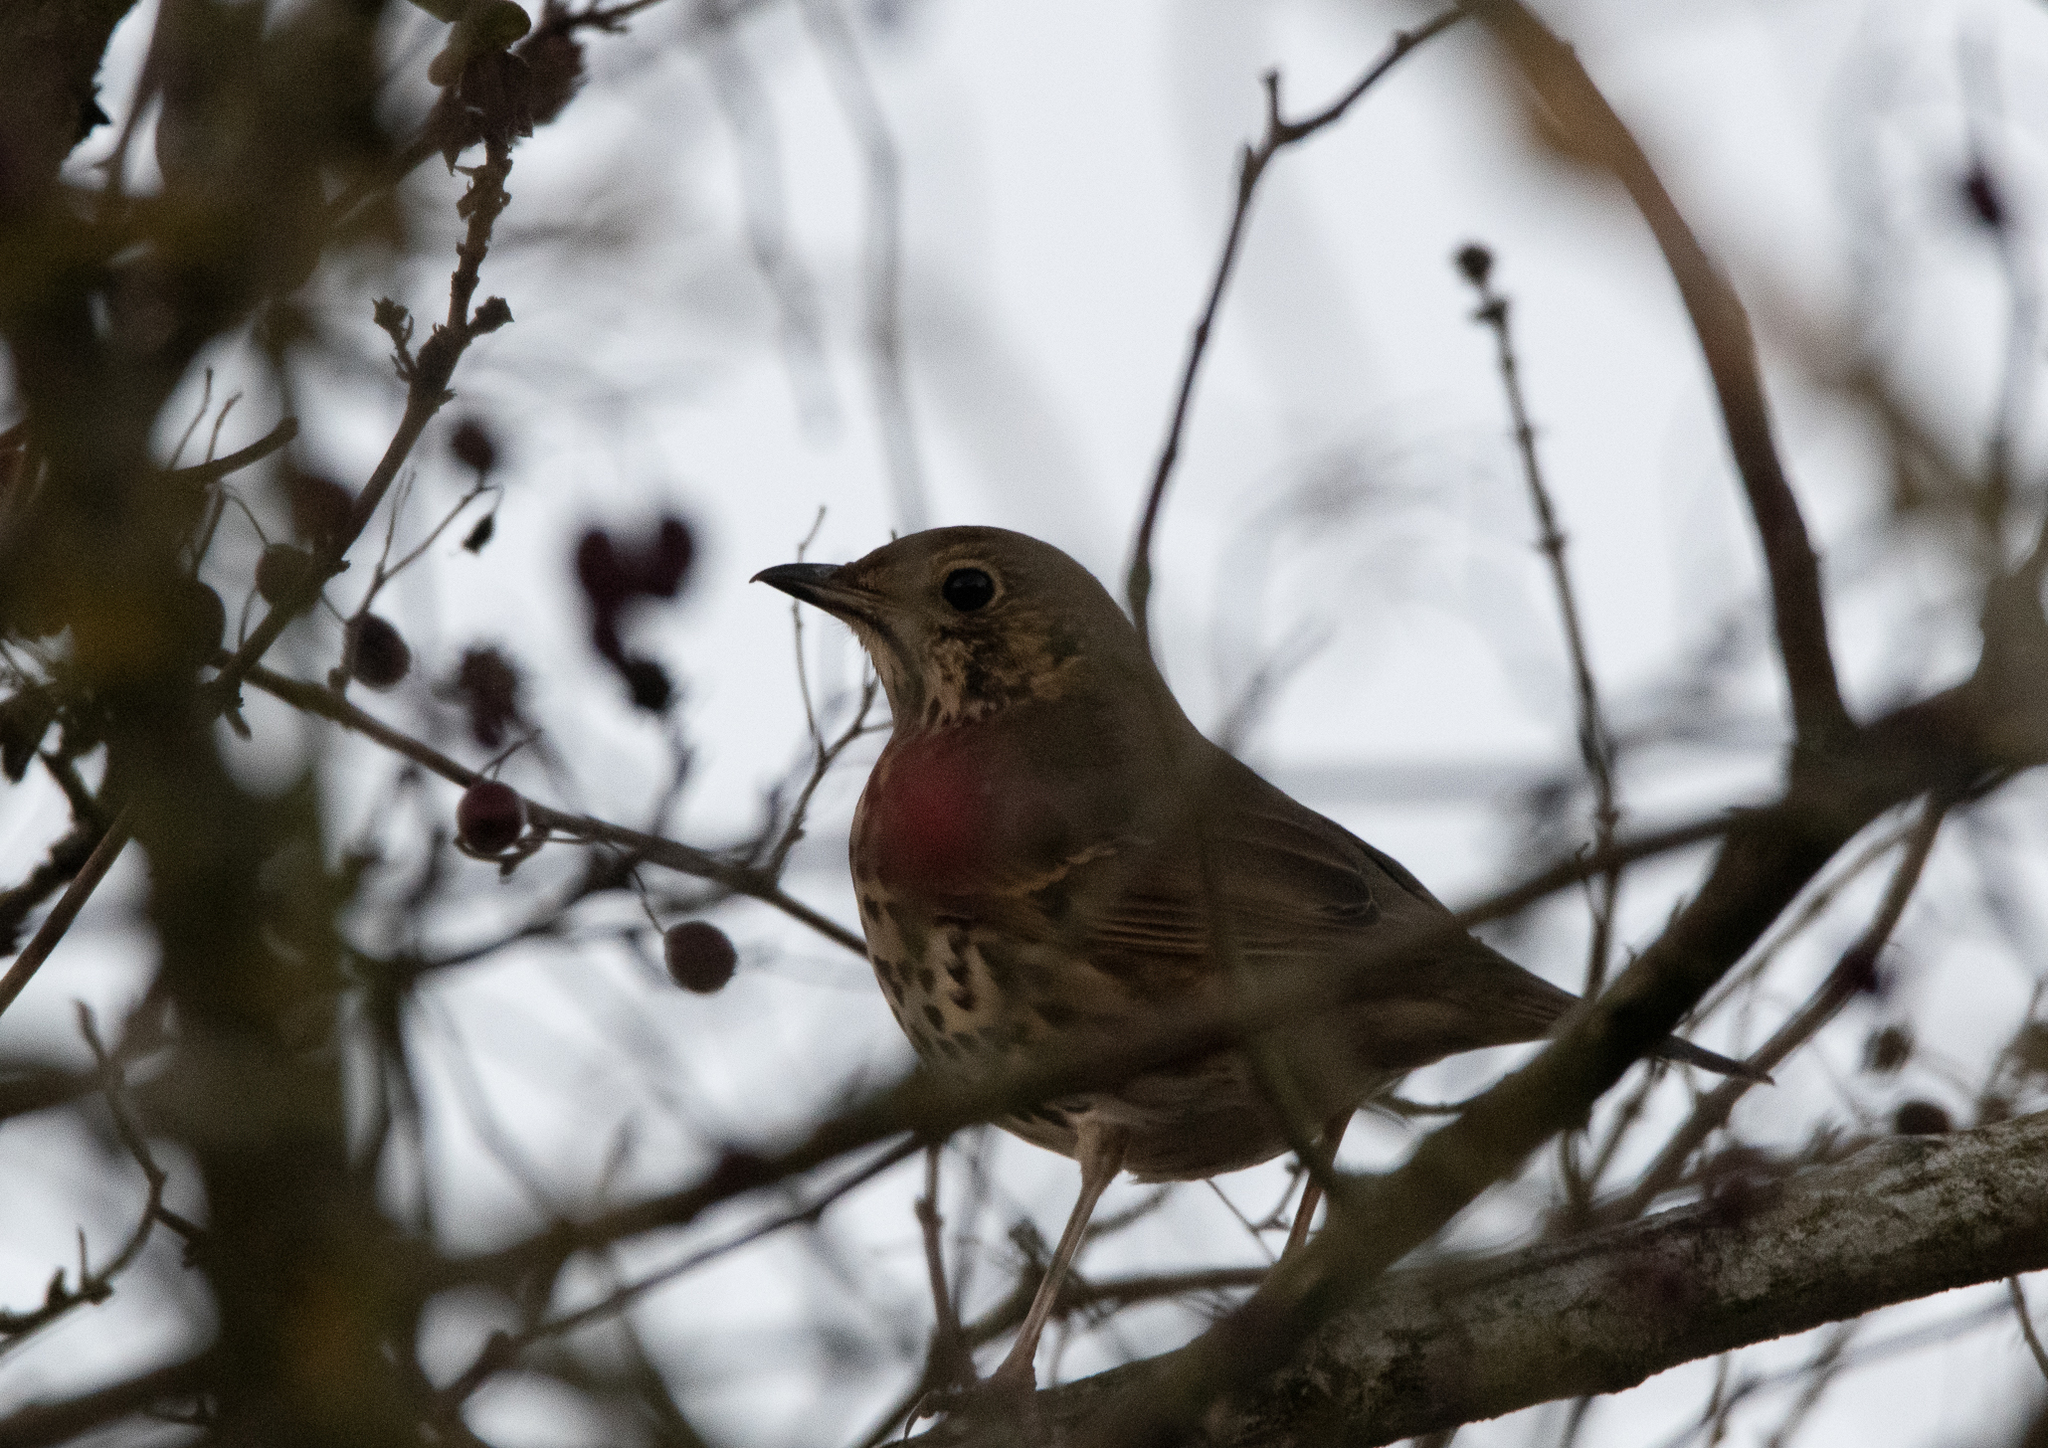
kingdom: Animalia
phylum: Chordata
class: Aves
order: Passeriformes
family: Turdidae
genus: Turdus
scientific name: Turdus philomelos
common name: Song thrush
